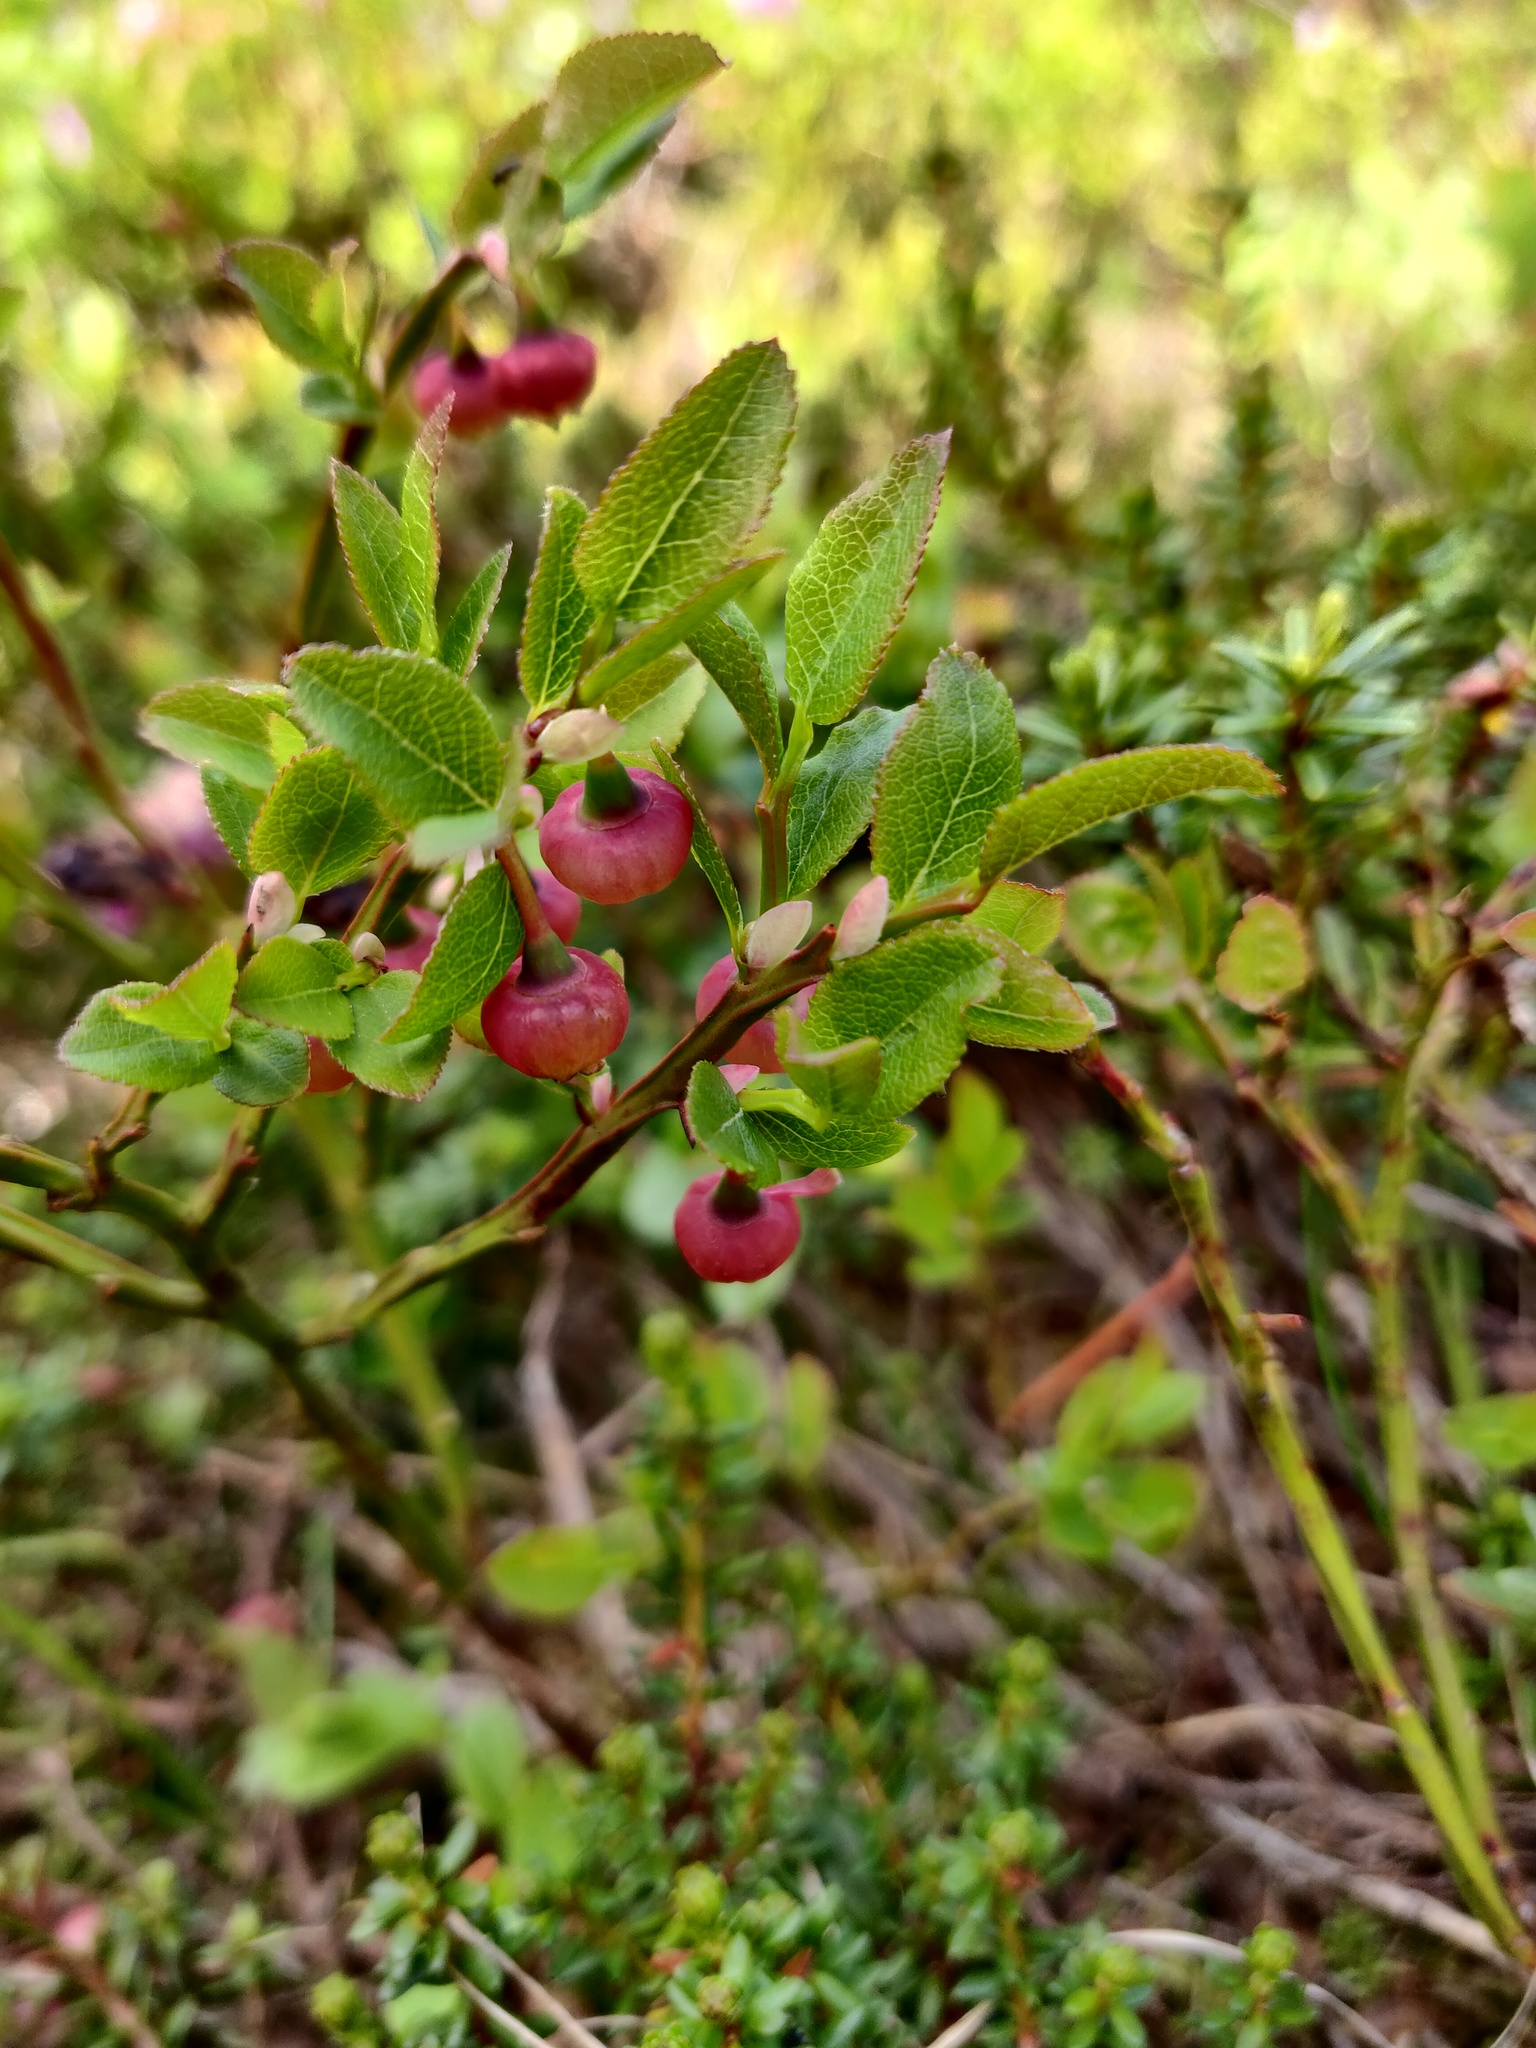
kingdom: Plantae
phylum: Tracheophyta
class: Magnoliopsida
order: Ericales
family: Ericaceae
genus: Vaccinium
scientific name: Vaccinium myrtillus
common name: Bilberry
